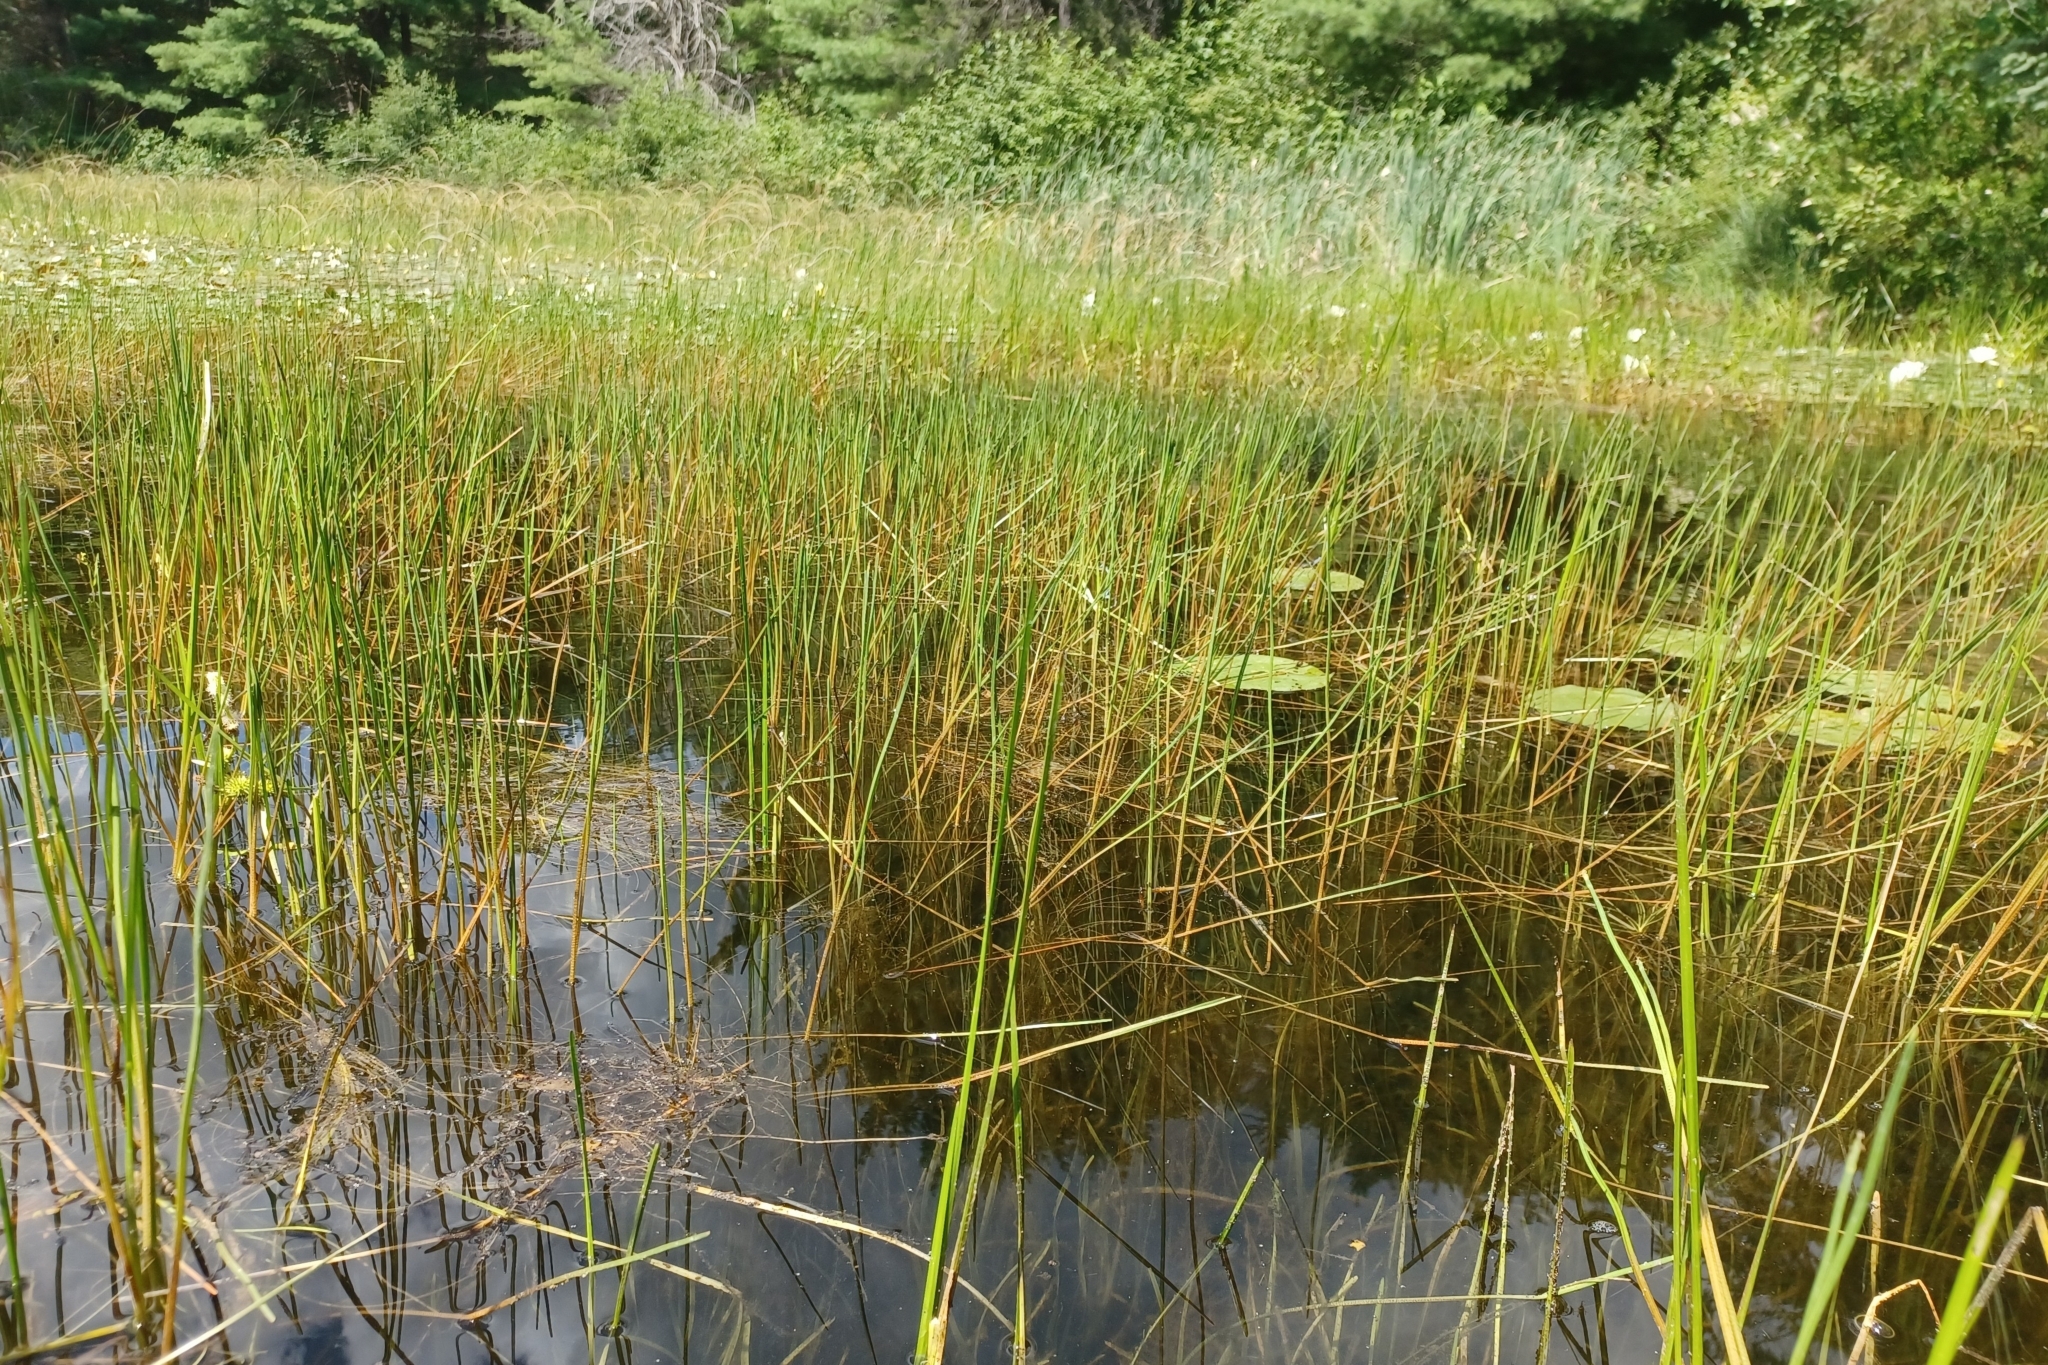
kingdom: Plantae
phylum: Tracheophyta
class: Liliopsida
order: Poales
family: Cyperaceae
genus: Eleocharis
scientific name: Eleocharis robbinsii
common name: Robbins' spikerush
